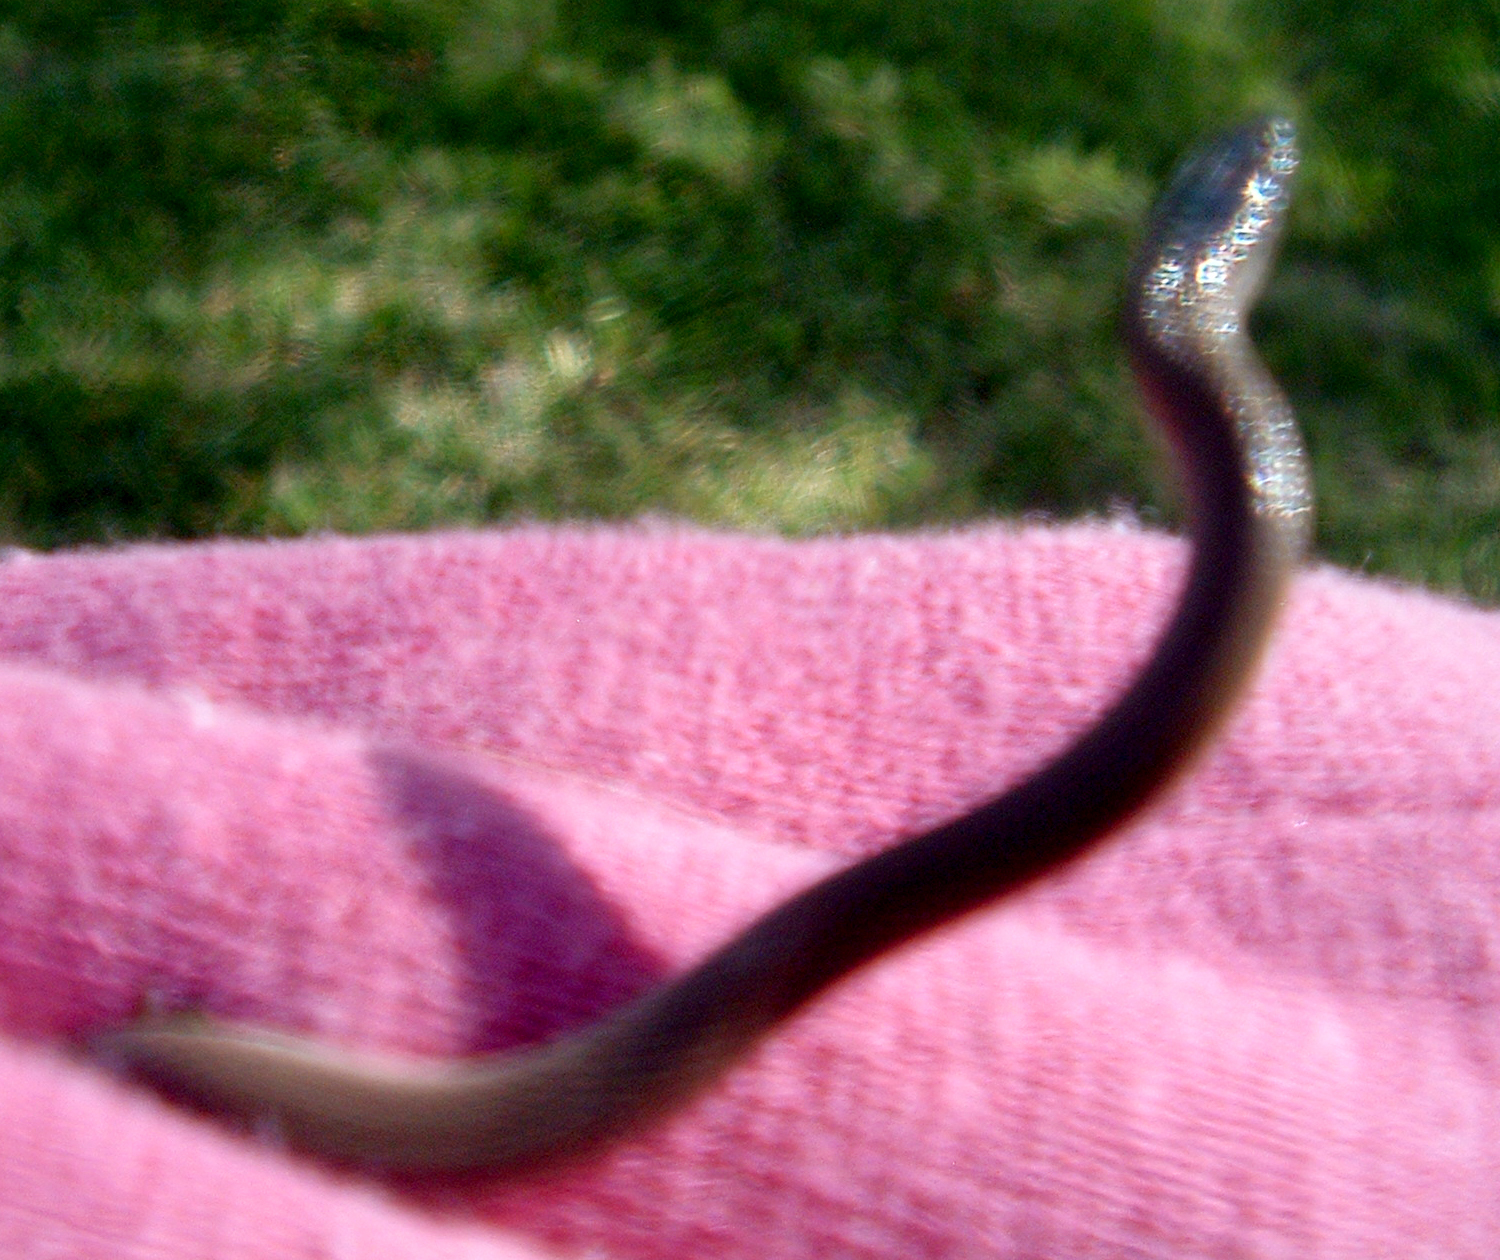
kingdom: Animalia
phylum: Chordata
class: Squamata
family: Colubridae
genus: Haldea
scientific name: Haldea striatula
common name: Rough earth snake
